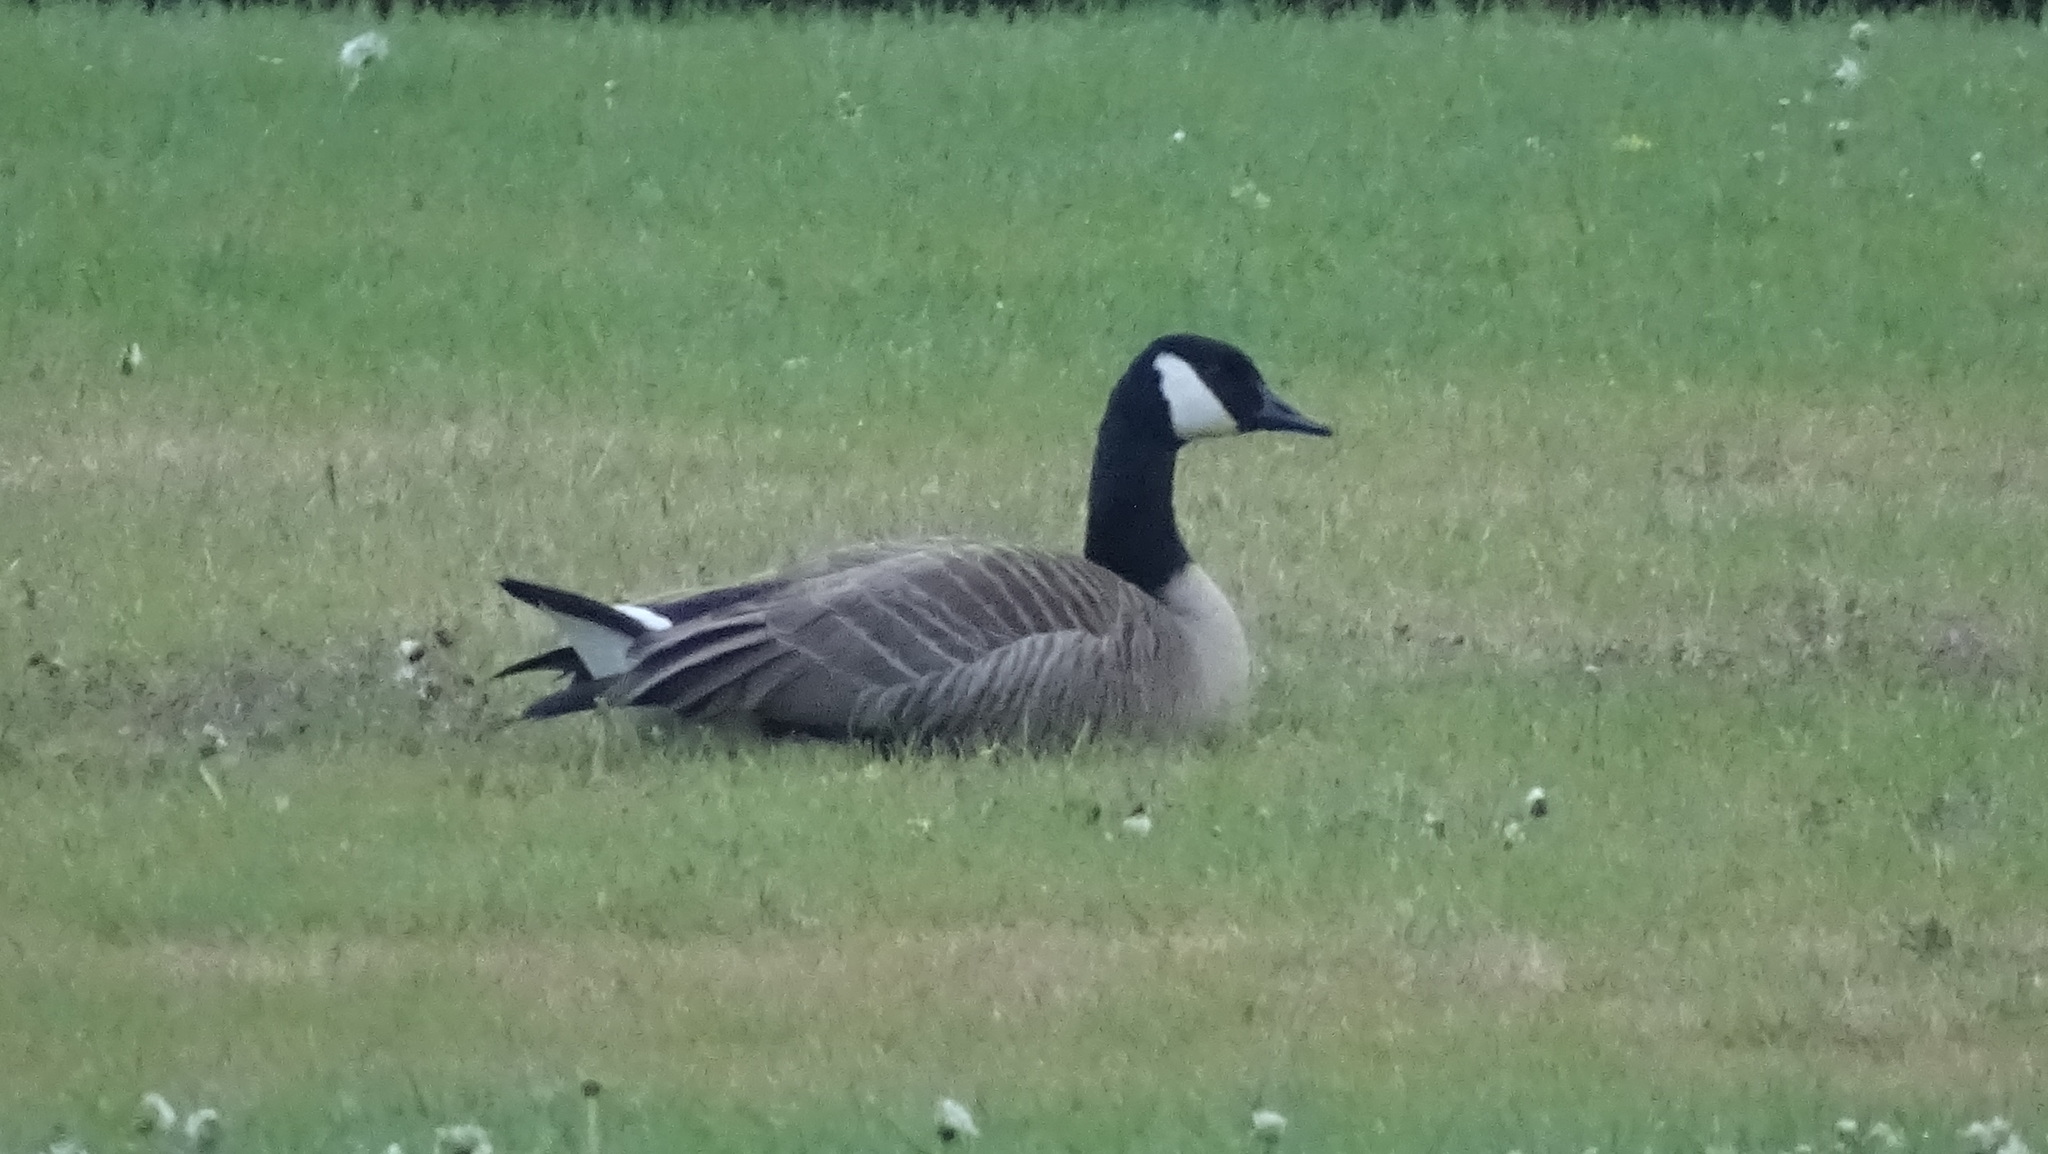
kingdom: Animalia
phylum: Chordata
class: Aves
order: Anseriformes
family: Anatidae
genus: Branta
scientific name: Branta canadensis
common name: Canada goose
